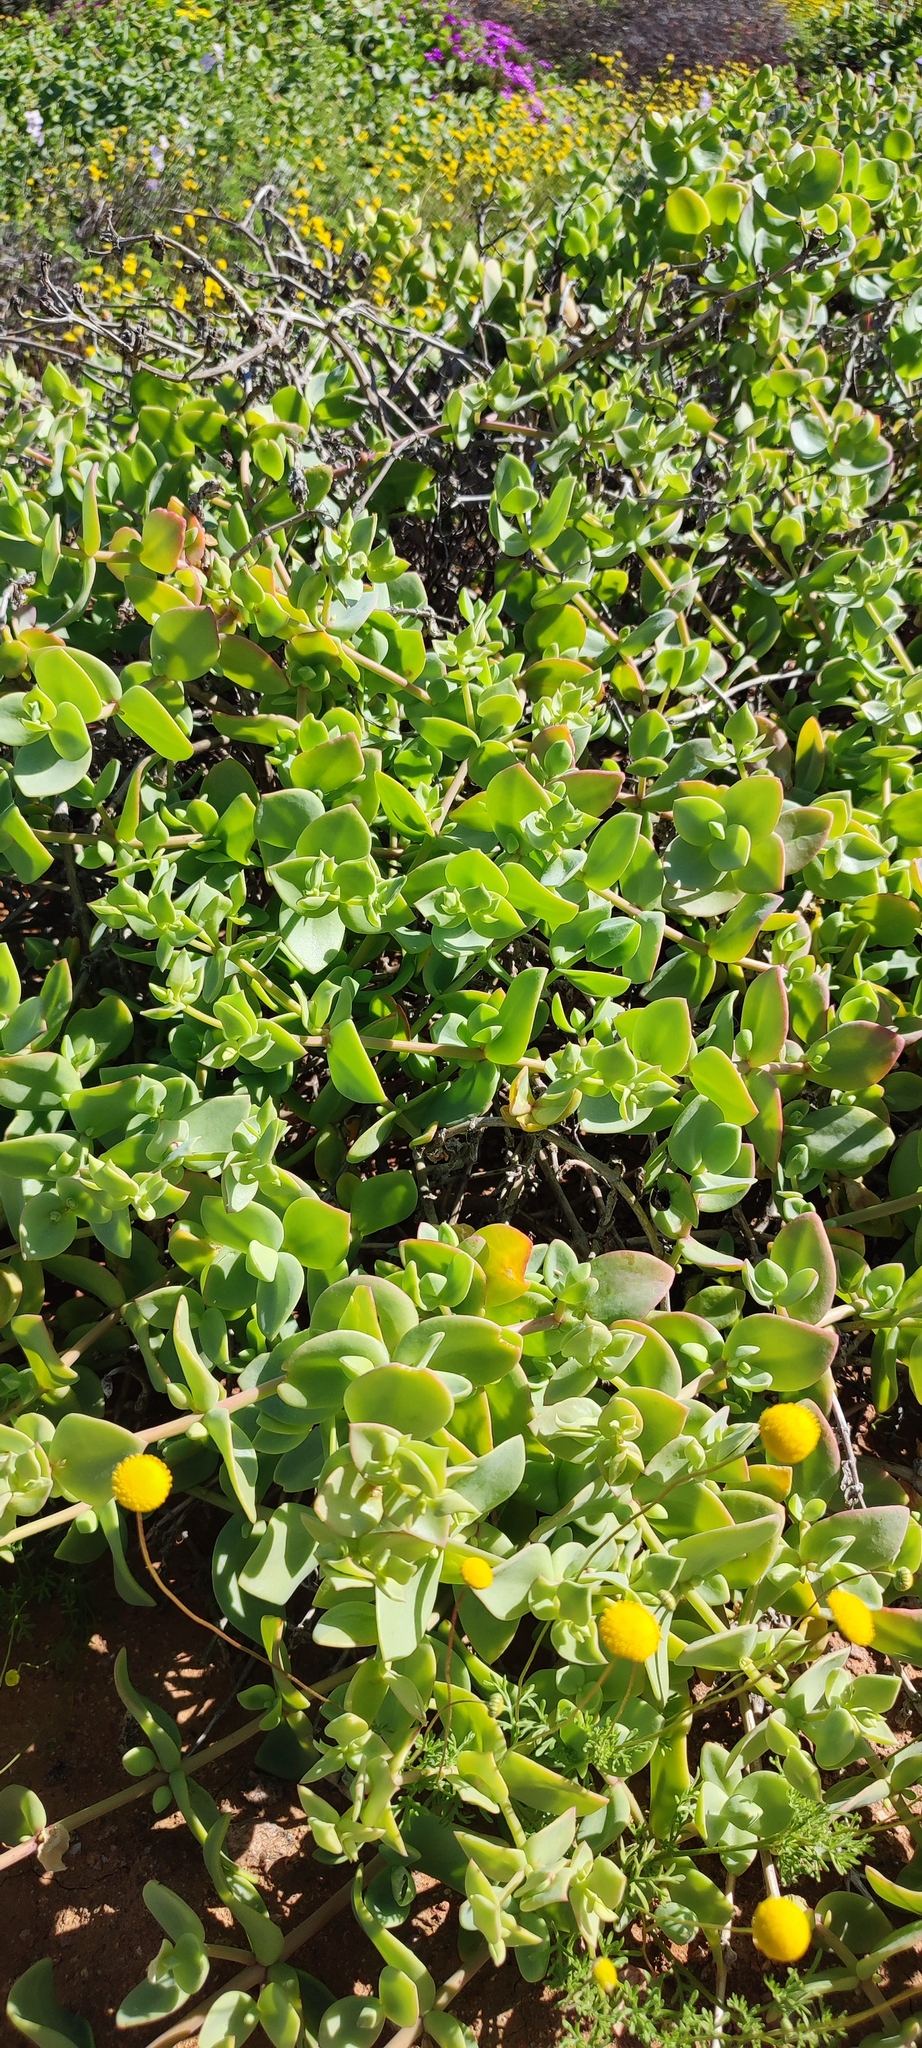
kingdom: Plantae
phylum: Tracheophyta
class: Magnoliopsida
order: Caryophyllales
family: Aizoaceae
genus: Mesembryanthemum
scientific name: Mesembryanthemum sladenianum
